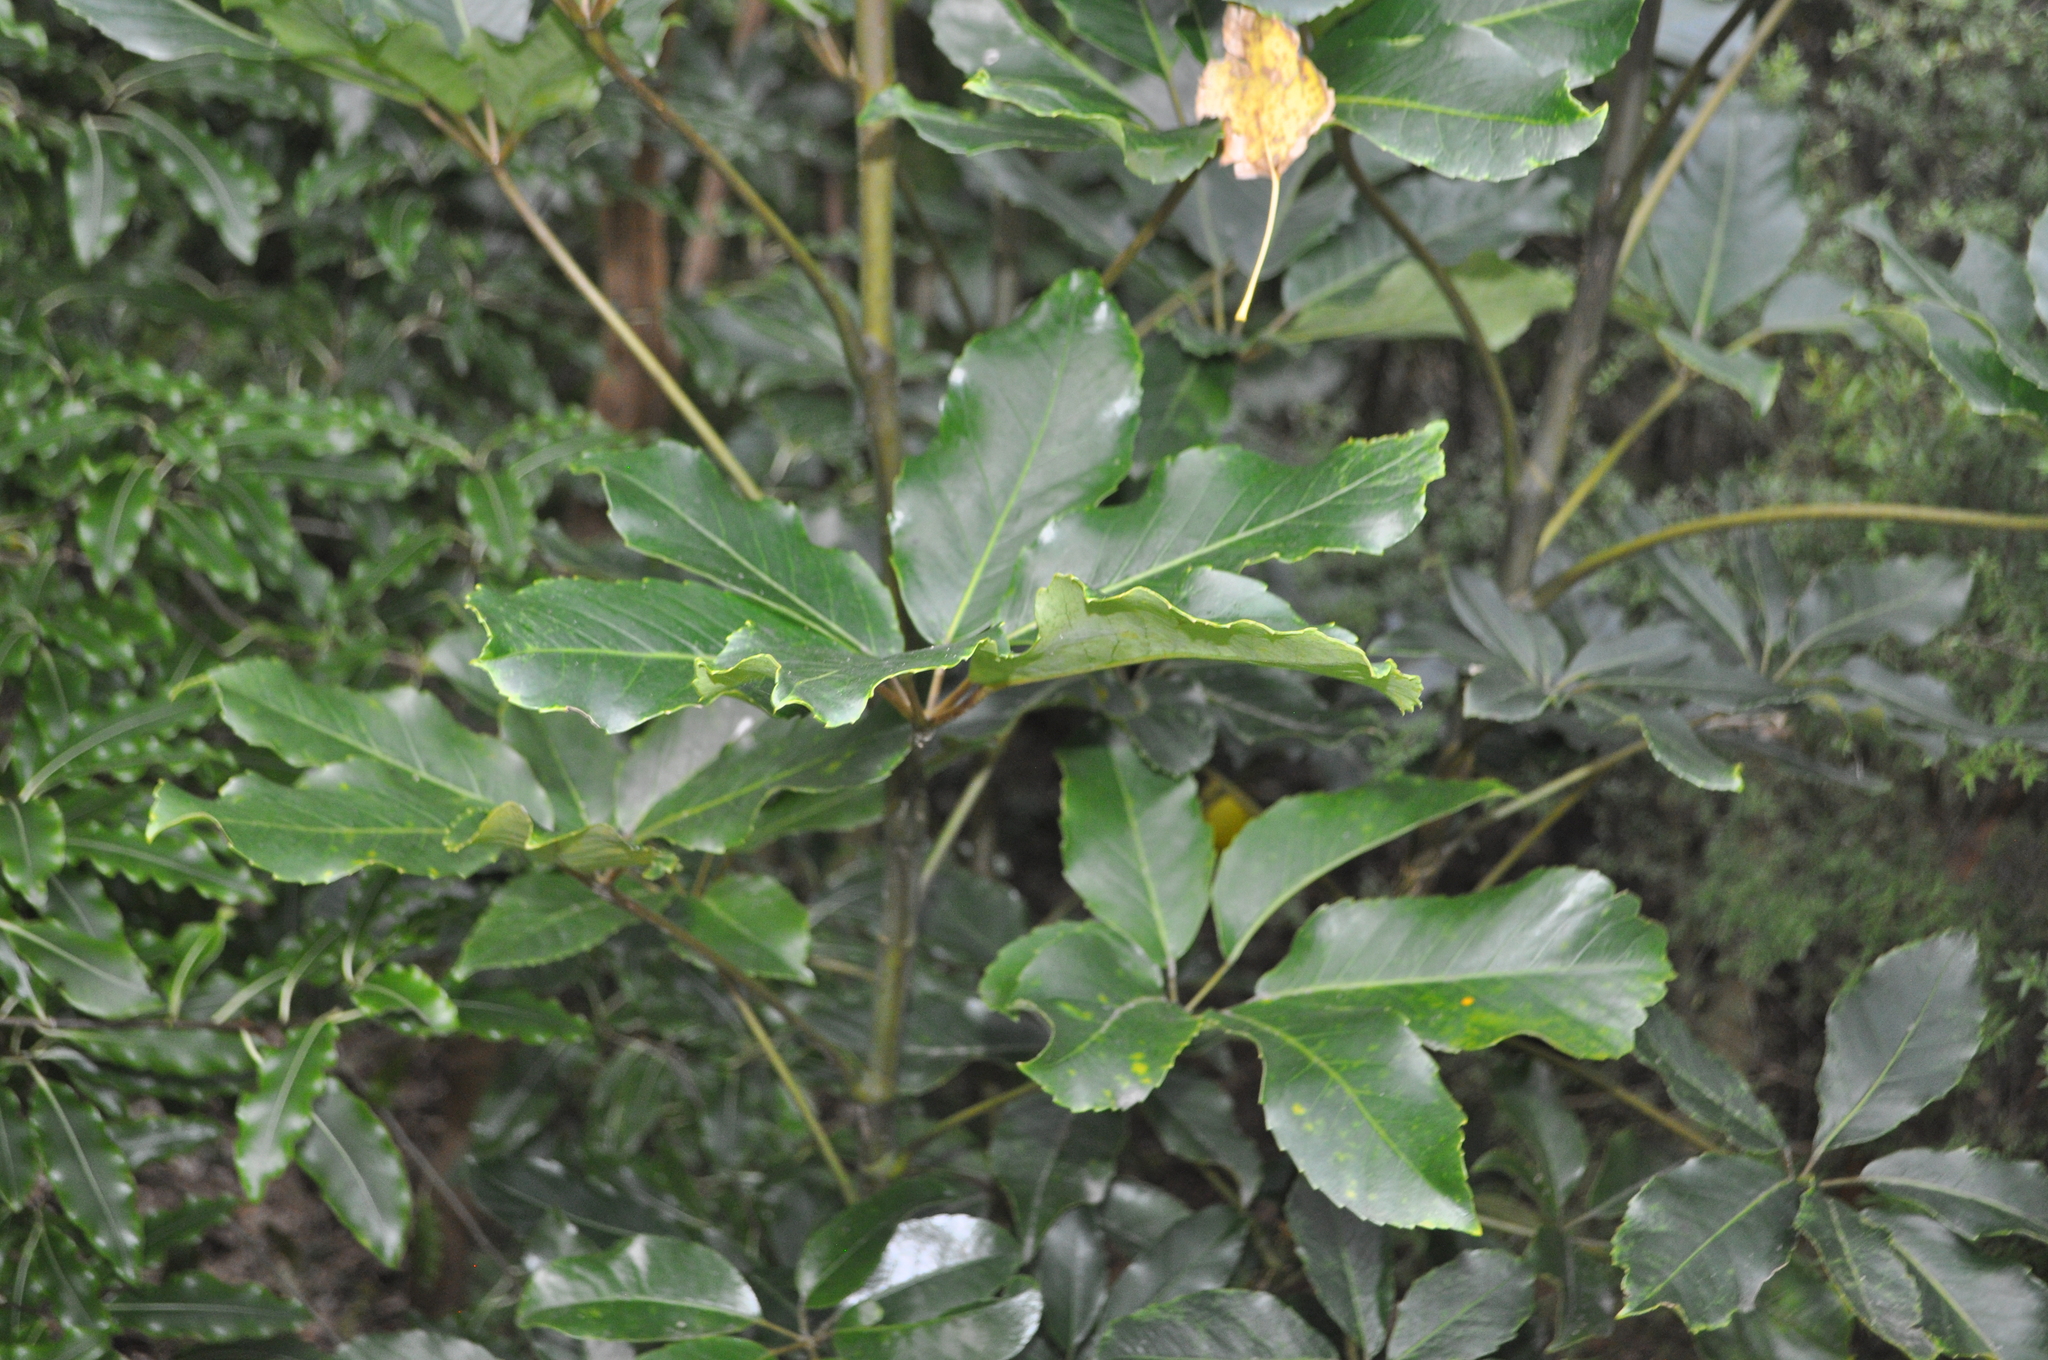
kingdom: Plantae
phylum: Tracheophyta
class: Magnoliopsida
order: Apiales
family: Araliaceae
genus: Neopanax
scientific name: Neopanax arboreus
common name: Five-fingers
